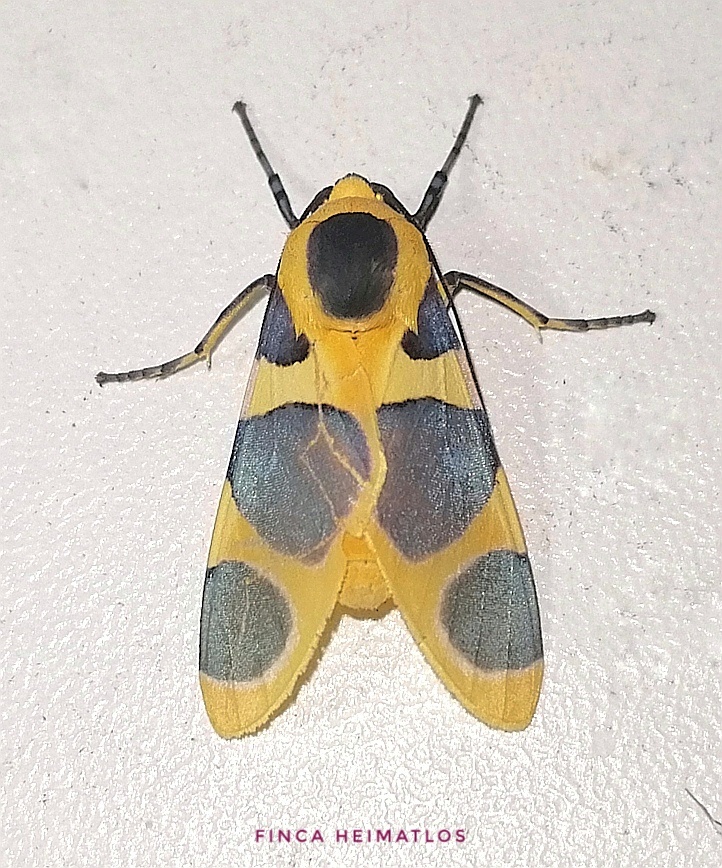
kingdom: Animalia
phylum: Arthropoda
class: Insecta
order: Lepidoptera
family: Erebidae
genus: Emurena
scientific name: Emurena lurida
